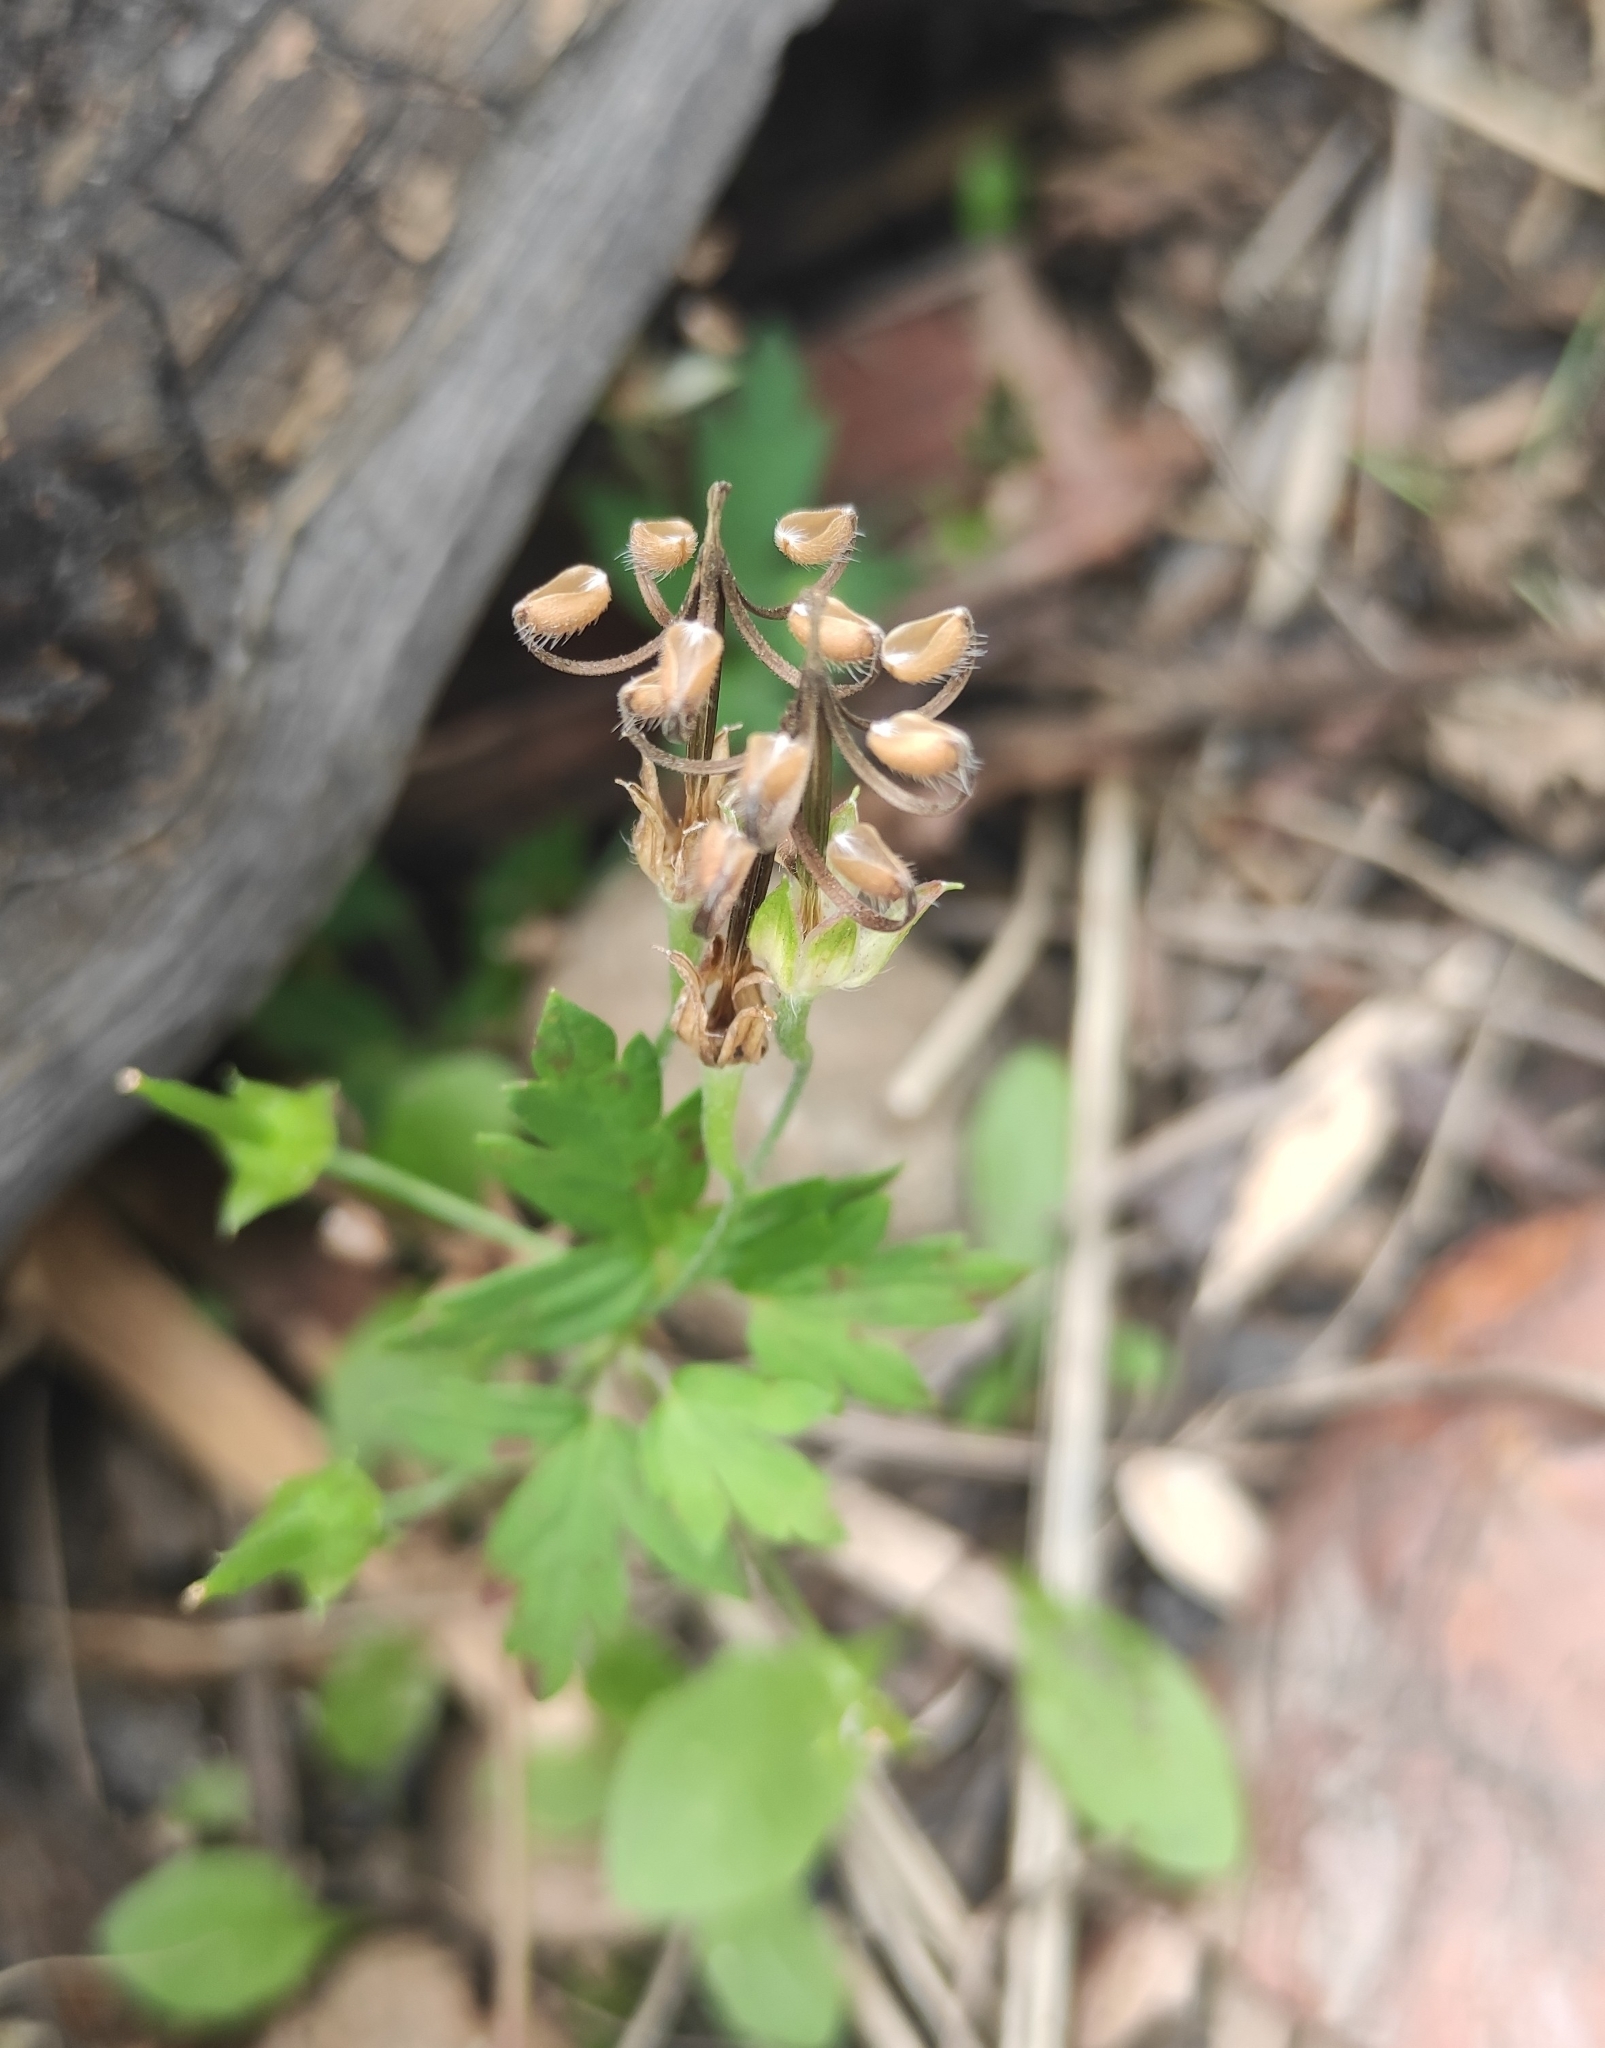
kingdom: Plantae
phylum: Tracheophyta
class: Magnoliopsida
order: Geraniales
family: Geraniaceae
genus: Geranium
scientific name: Geranium sibiricum
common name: Siberian crane's-bill
